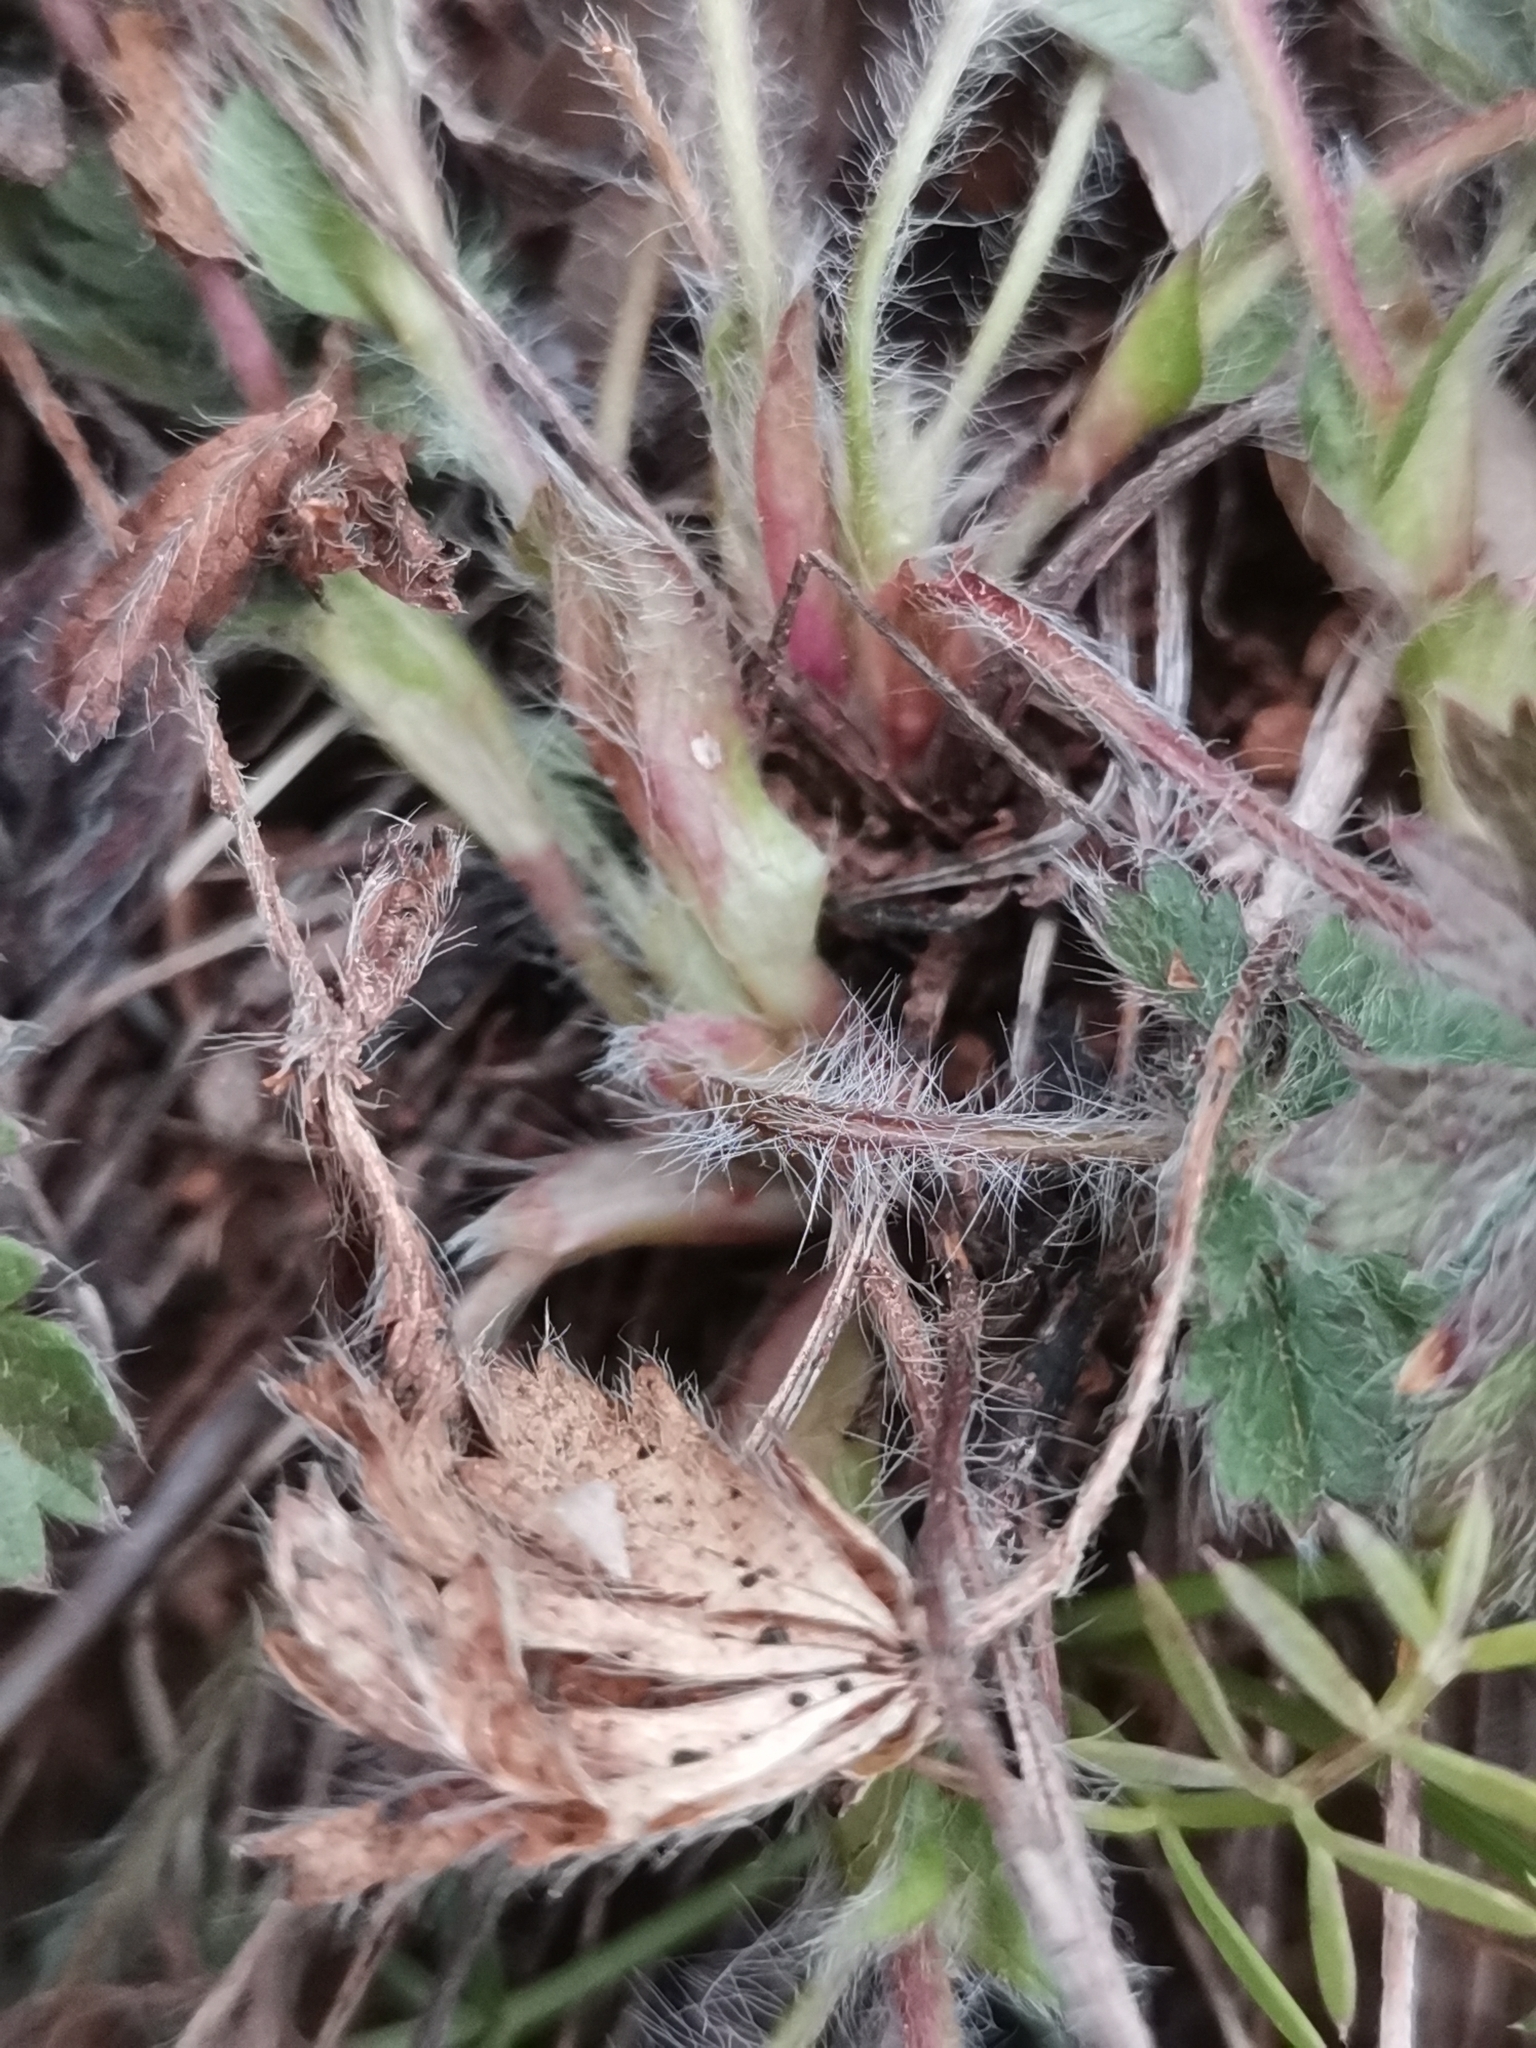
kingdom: Plantae
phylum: Tracheophyta
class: Magnoliopsida
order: Rosales
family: Rosaceae
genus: Potentilla
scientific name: Potentilla heptaphylla
